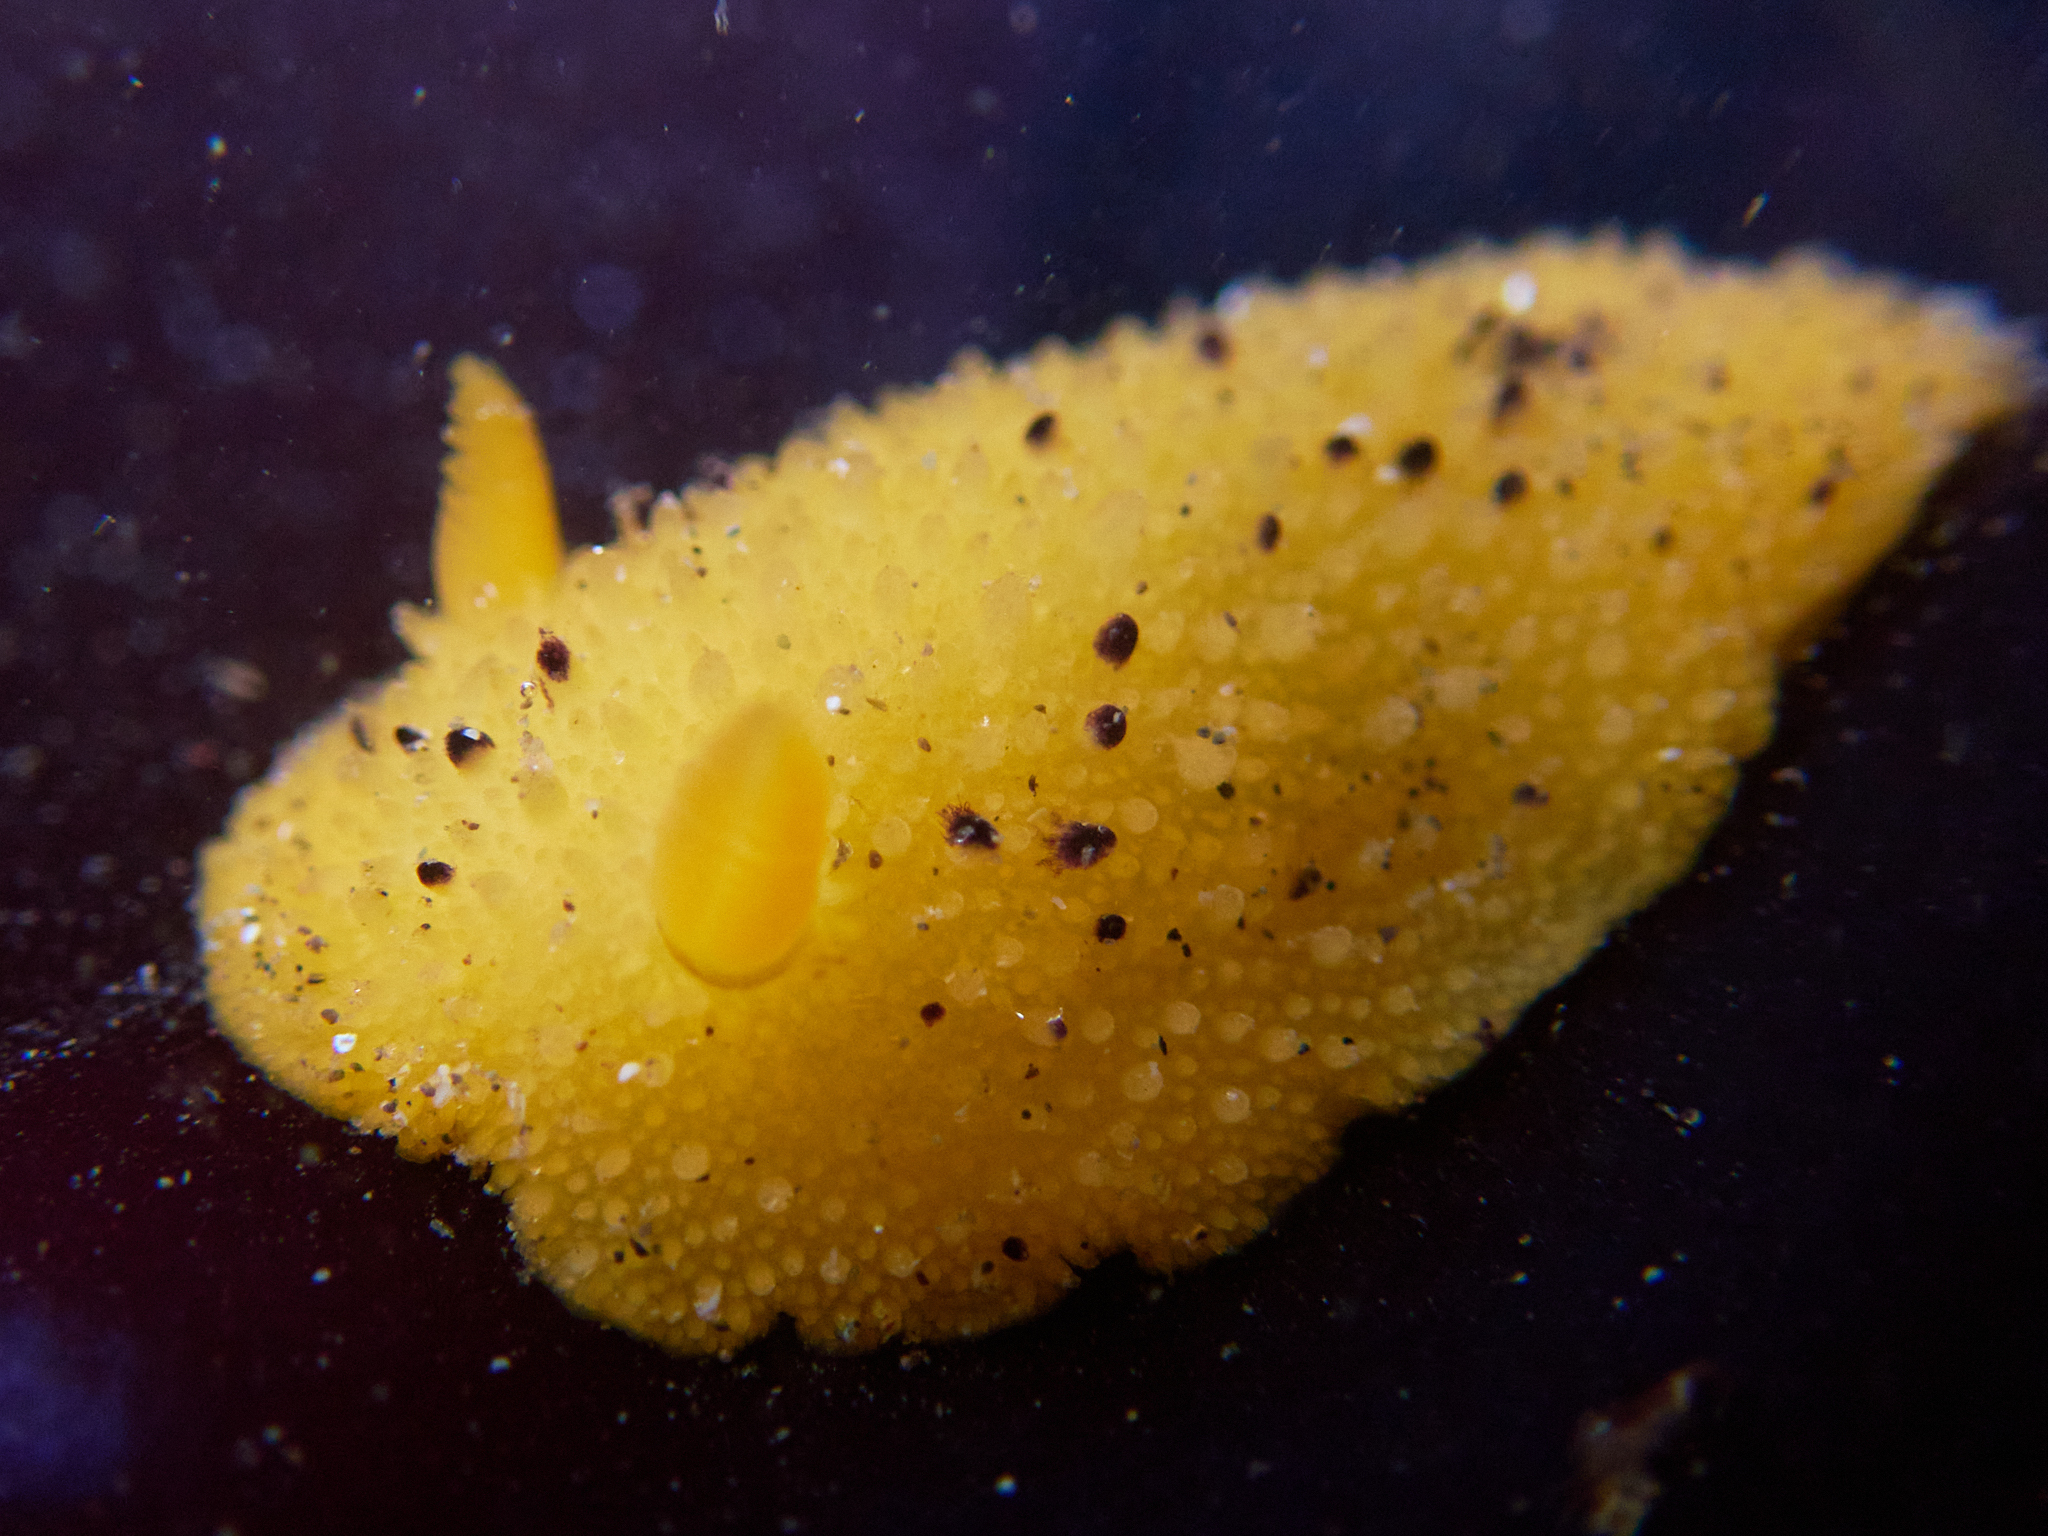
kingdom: Animalia
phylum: Mollusca
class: Gastropoda
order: Nudibranchia
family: Dorididae
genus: Doris
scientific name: Doris montereyensis
